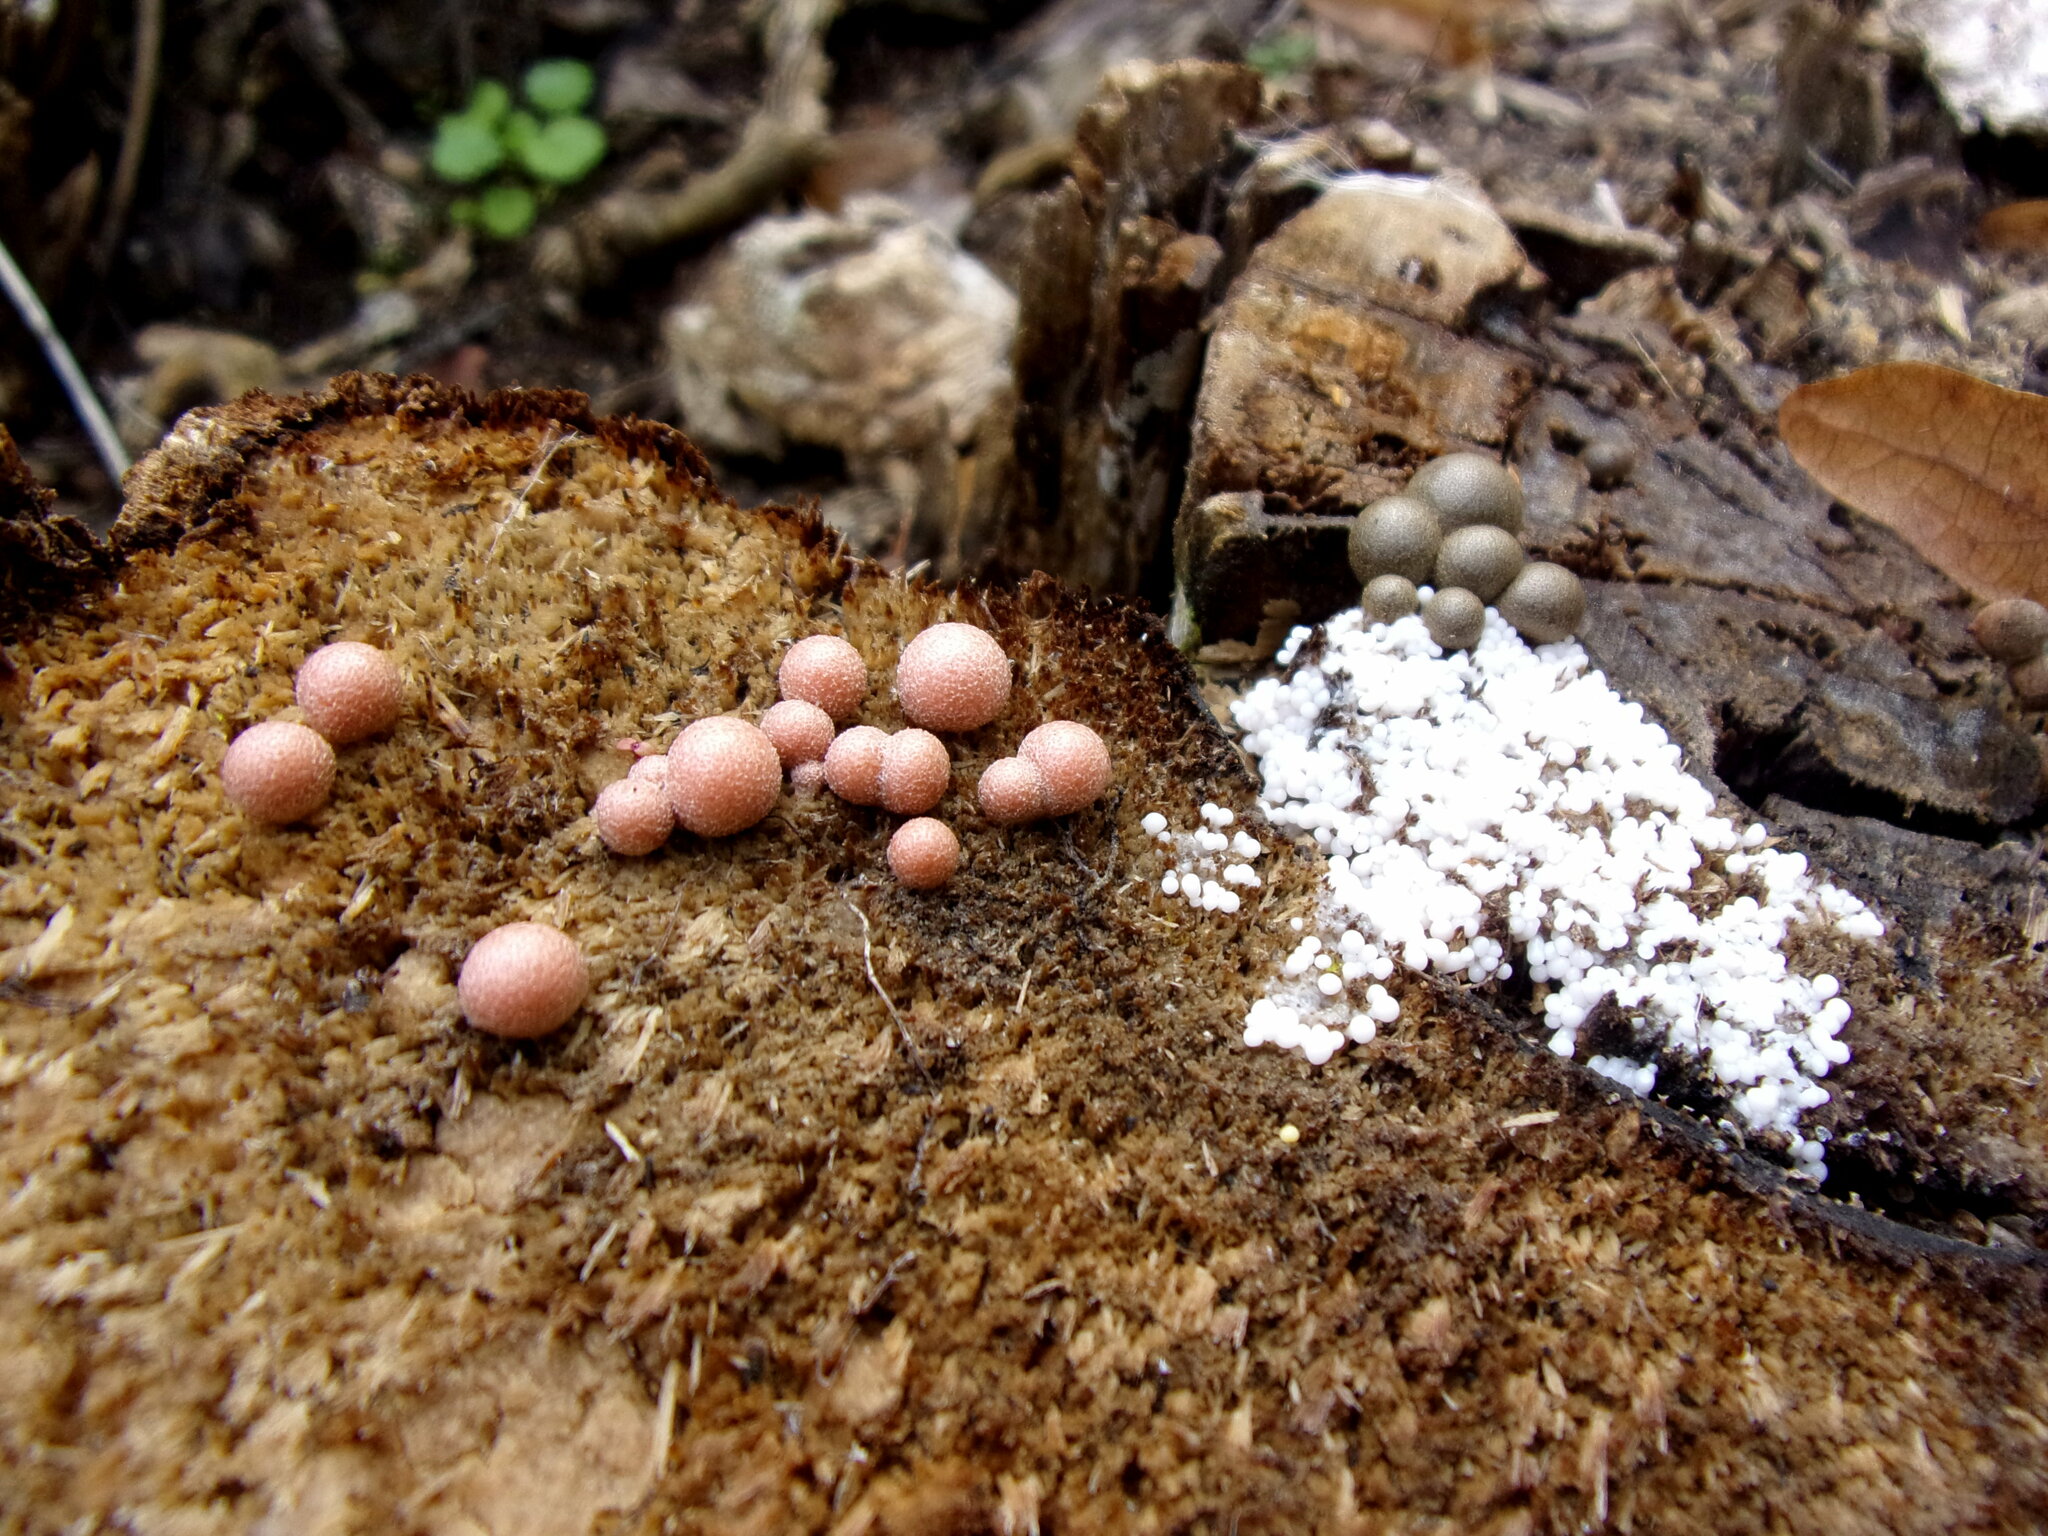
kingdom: Protozoa
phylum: Mycetozoa
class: Myxomycetes
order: Cribrariales
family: Tubiferaceae
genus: Lycogala
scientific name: Lycogala epidendrum
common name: Wolf's milk
